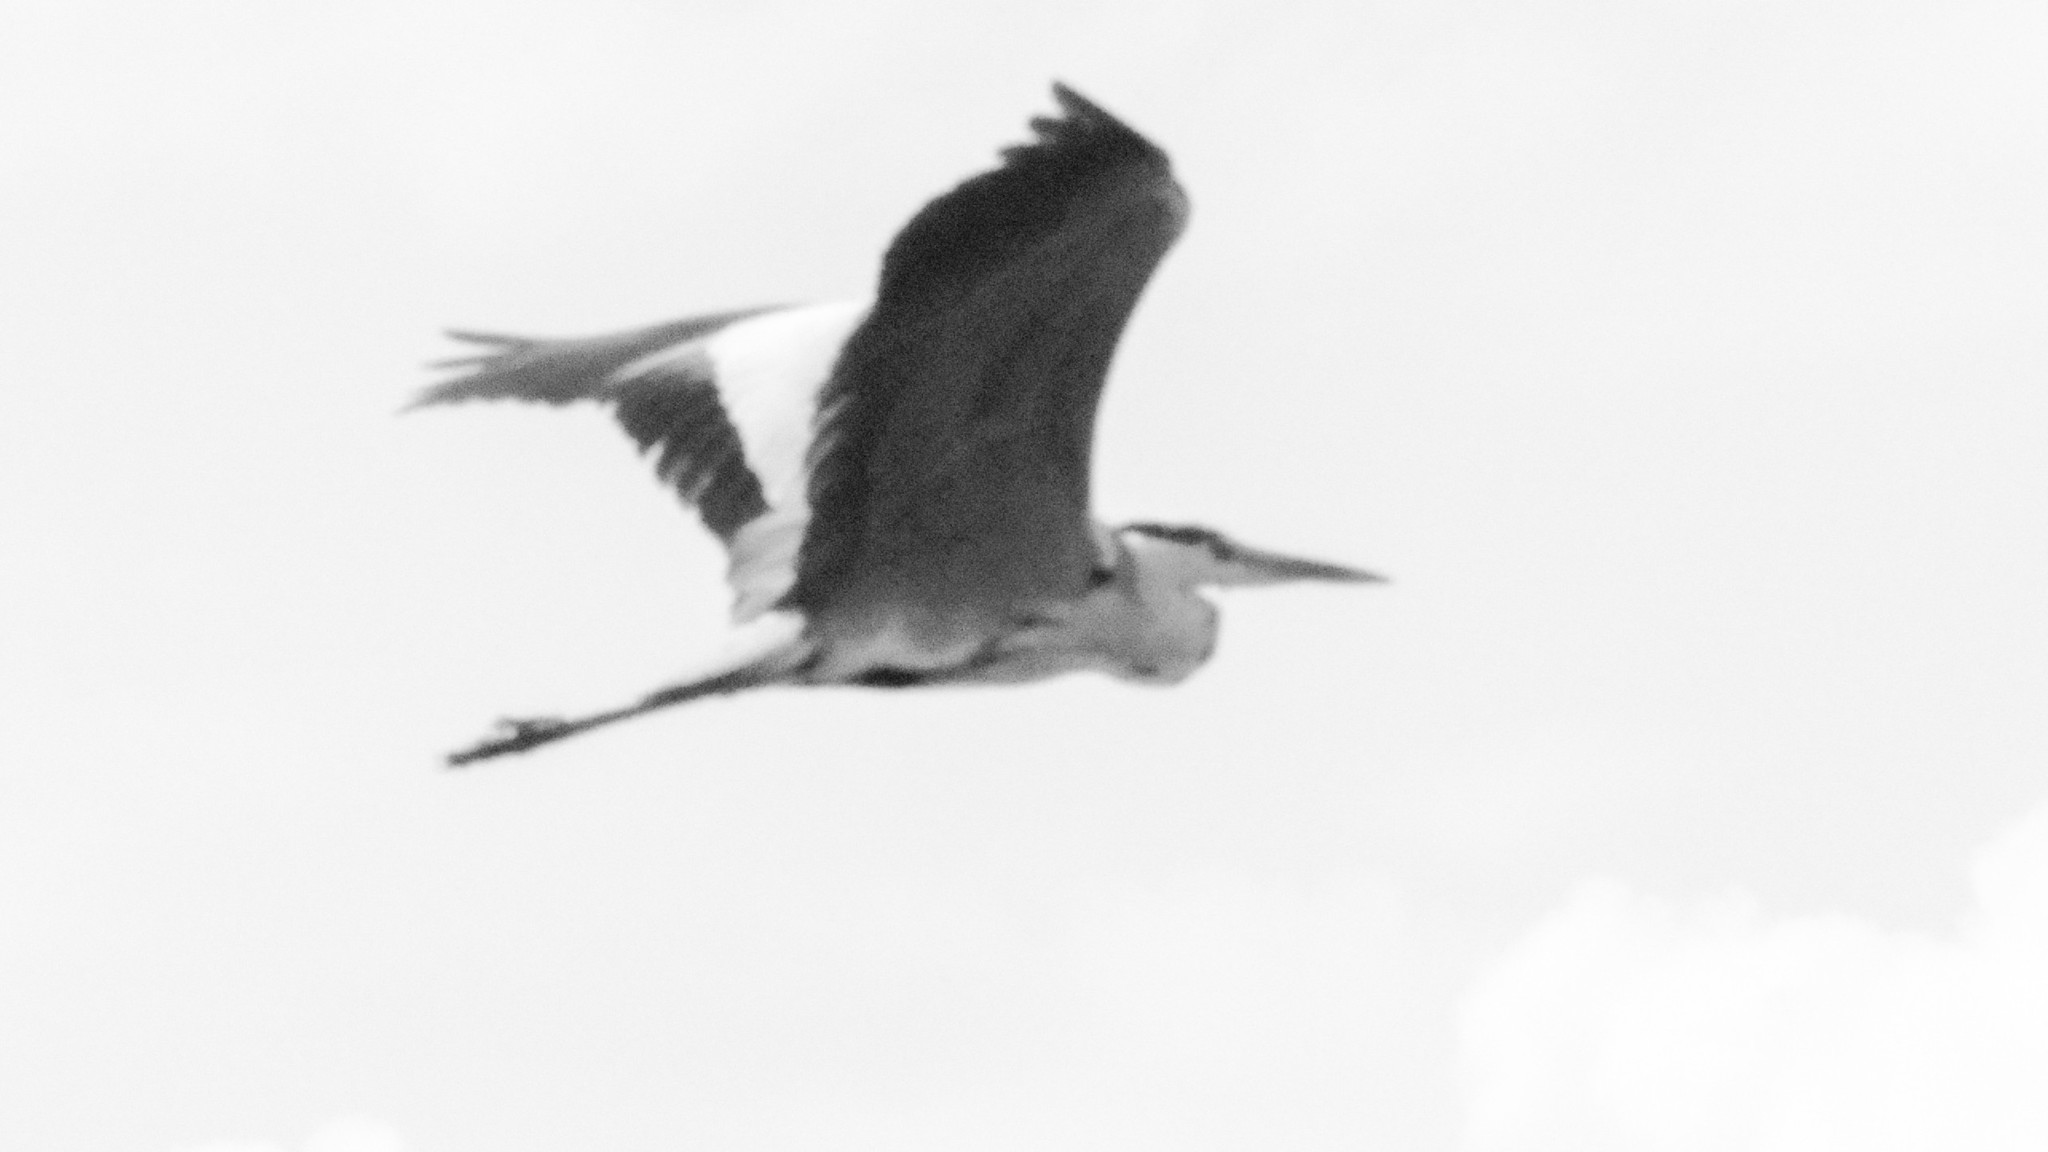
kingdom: Animalia
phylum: Chordata
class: Aves
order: Pelecaniformes
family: Ardeidae
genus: Ardea
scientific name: Ardea cinerea
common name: Grey heron
